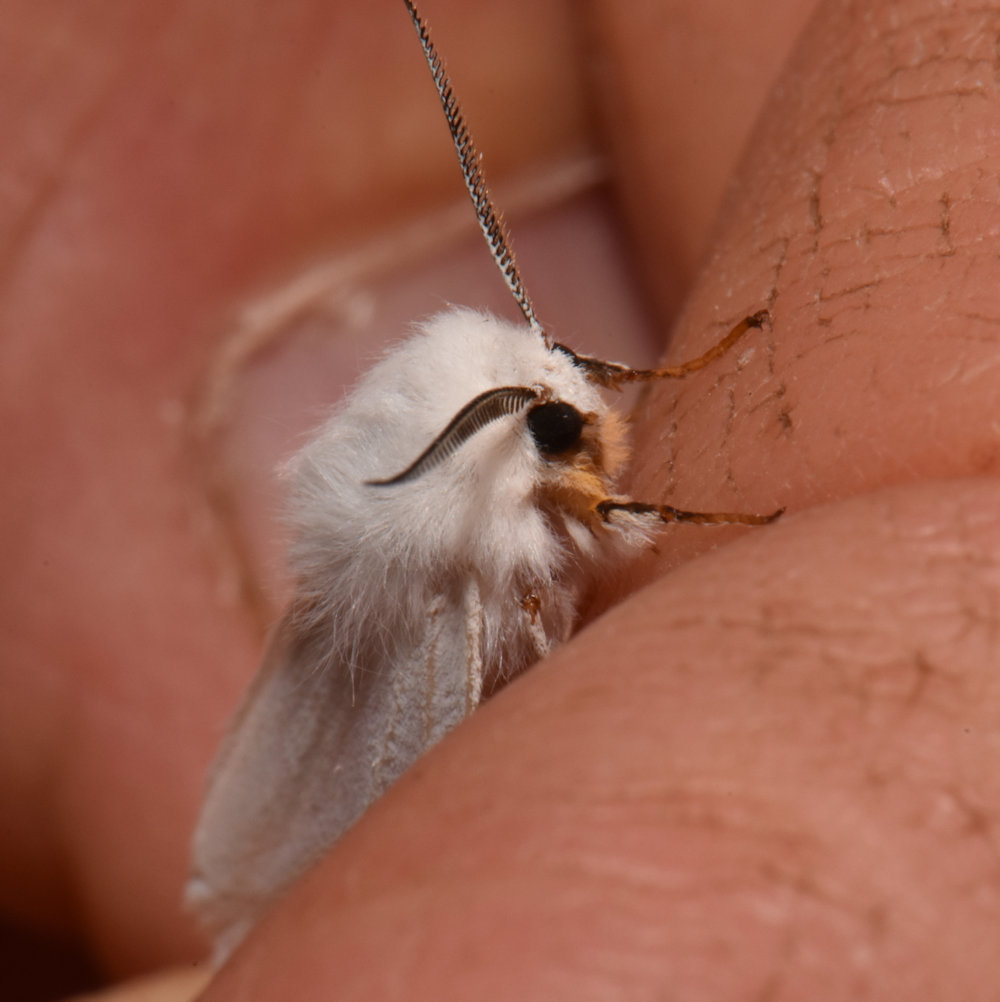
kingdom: Animalia
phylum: Arthropoda
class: Insecta
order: Lepidoptera
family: Erebidae
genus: Hyphantria
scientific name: Hyphantria cunea
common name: American white moth
